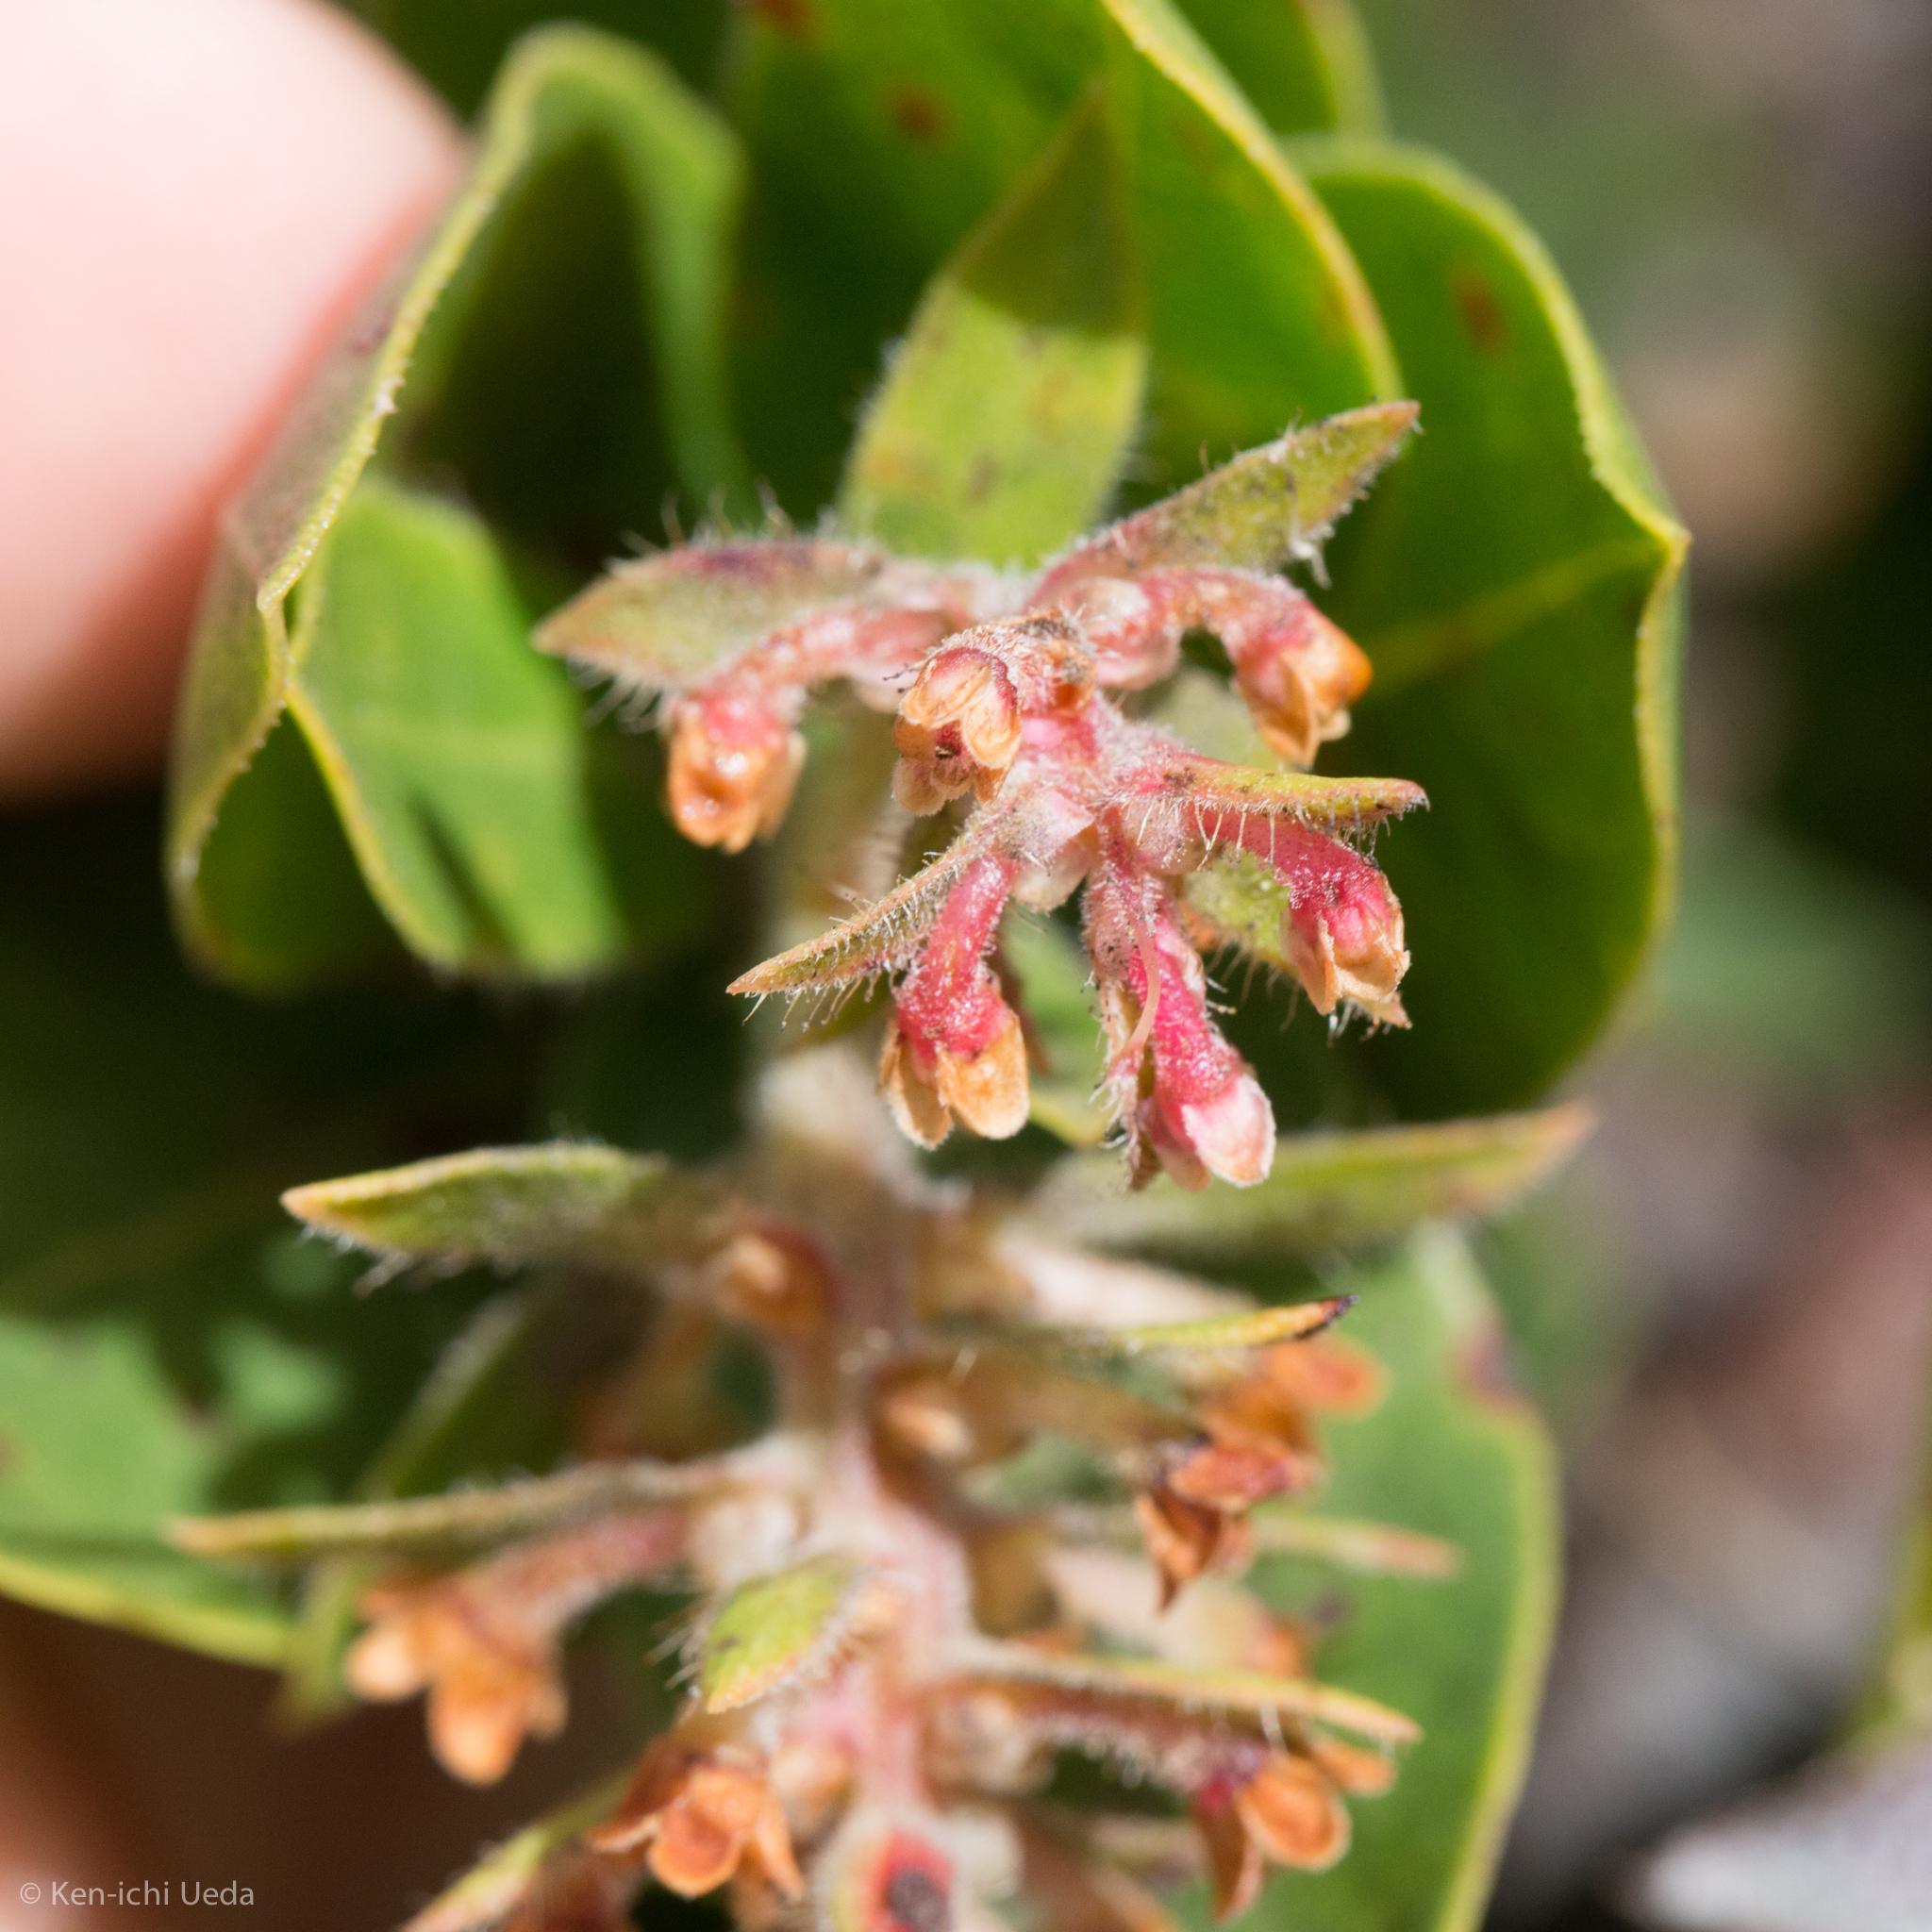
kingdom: Plantae
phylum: Tracheophyta
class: Magnoliopsida
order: Ericales
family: Ericaceae
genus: Arctostaphylos
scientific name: Arctostaphylos montaraensis
